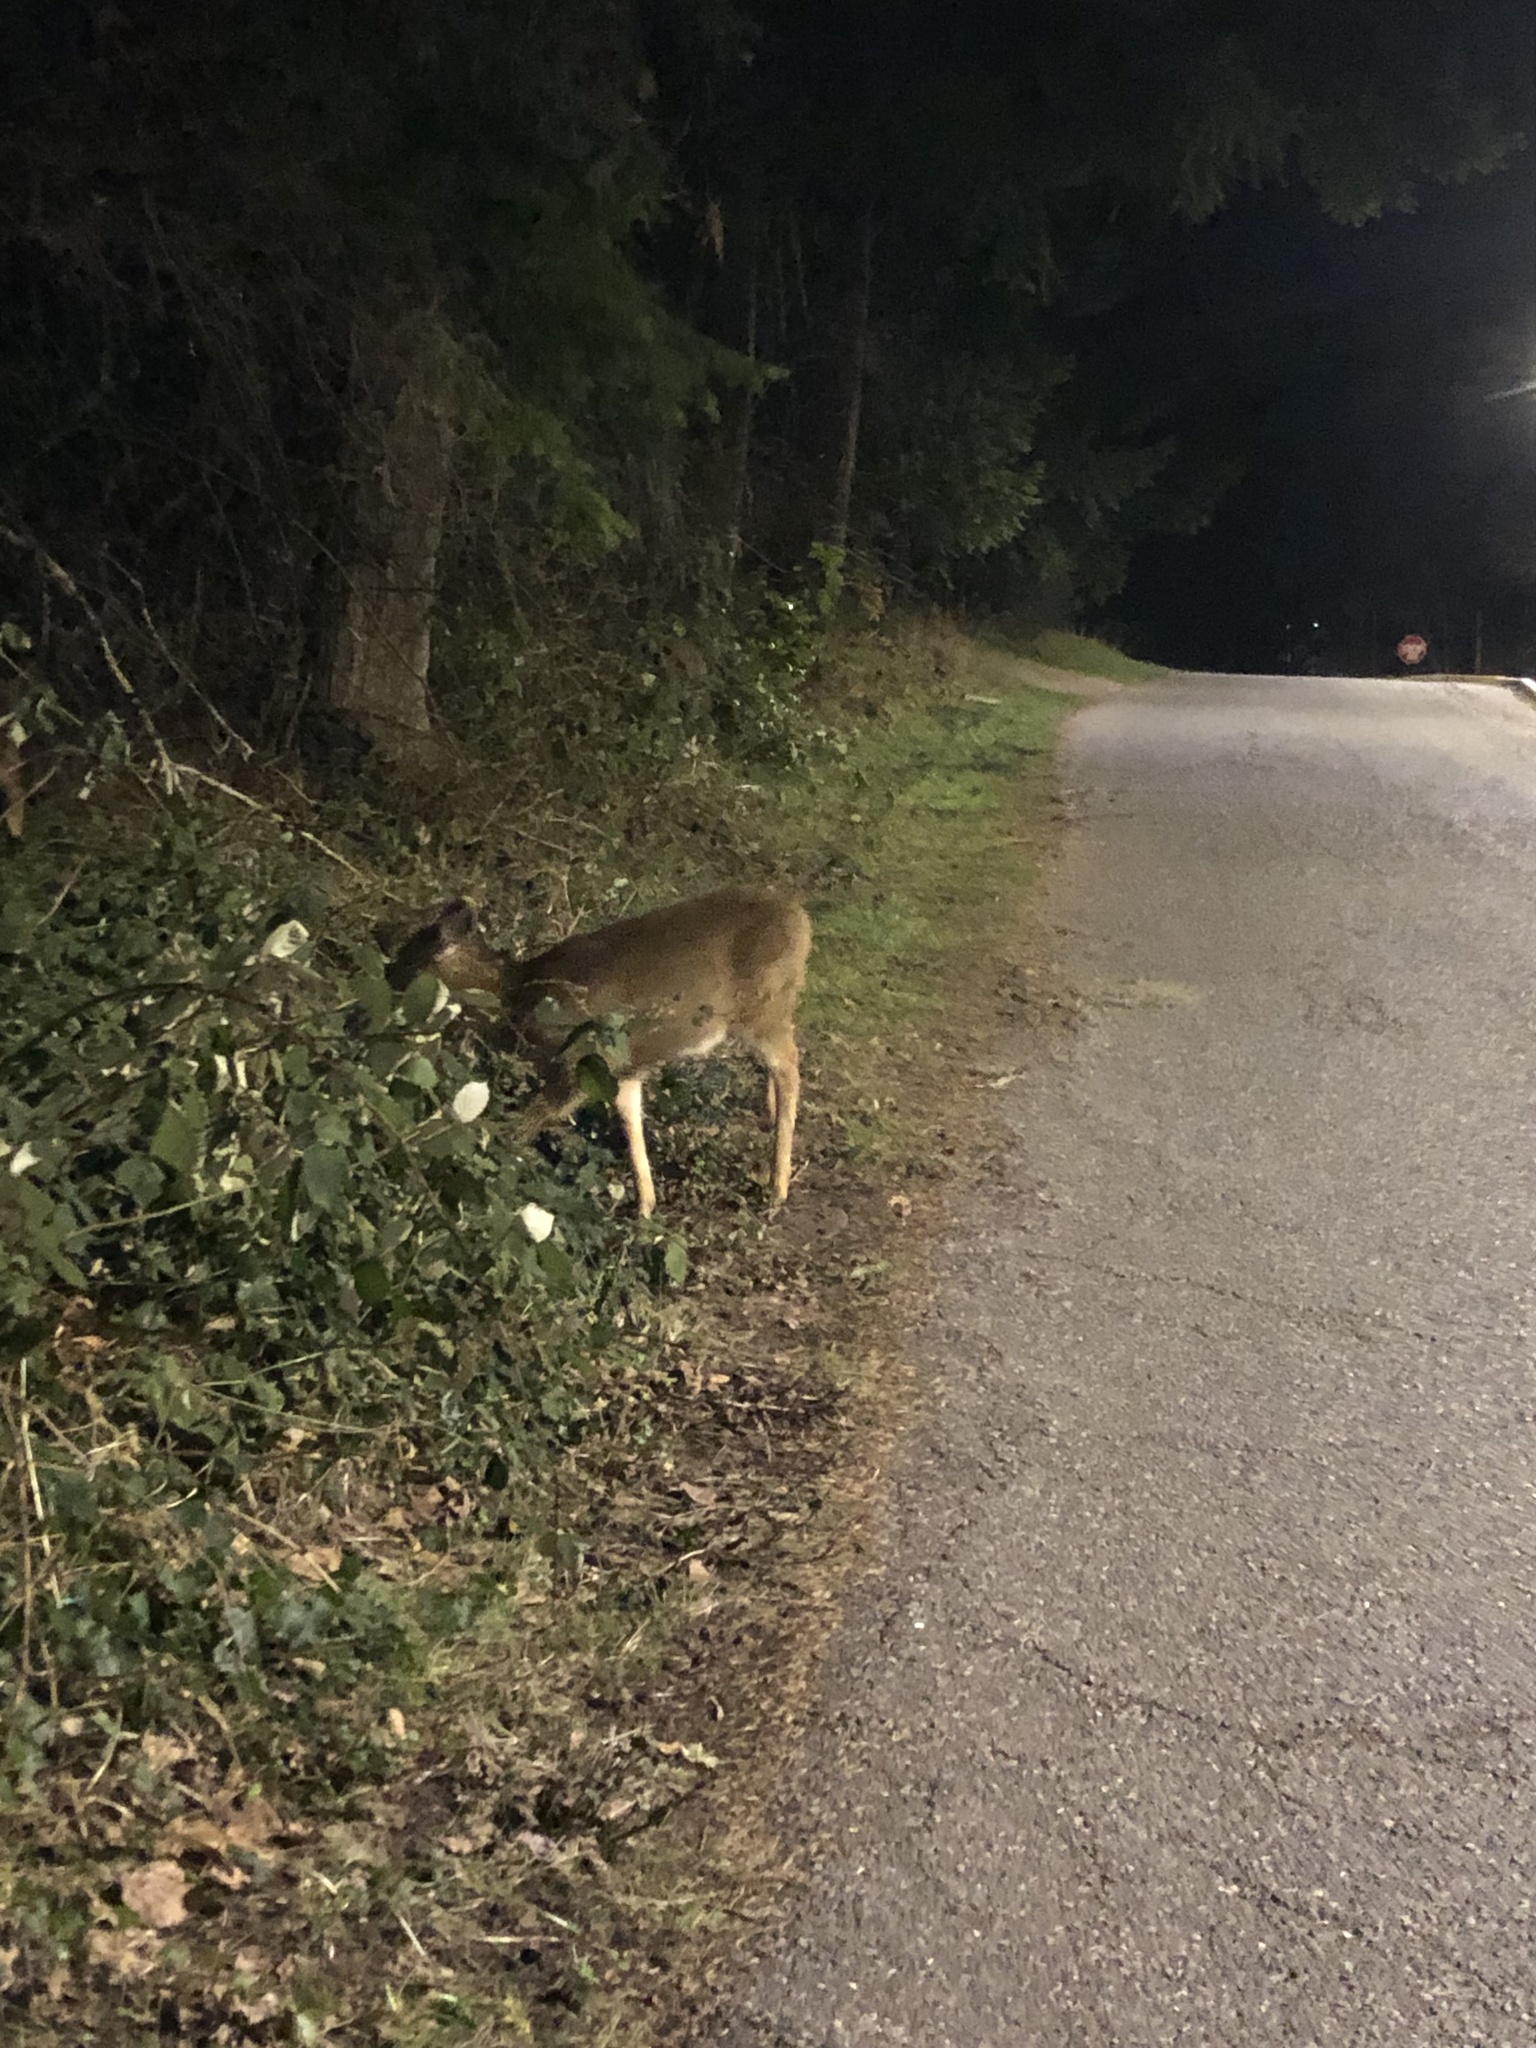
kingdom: Animalia
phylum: Chordata
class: Mammalia
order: Artiodactyla
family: Cervidae
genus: Odocoileus
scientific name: Odocoileus hemionus
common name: Mule deer
